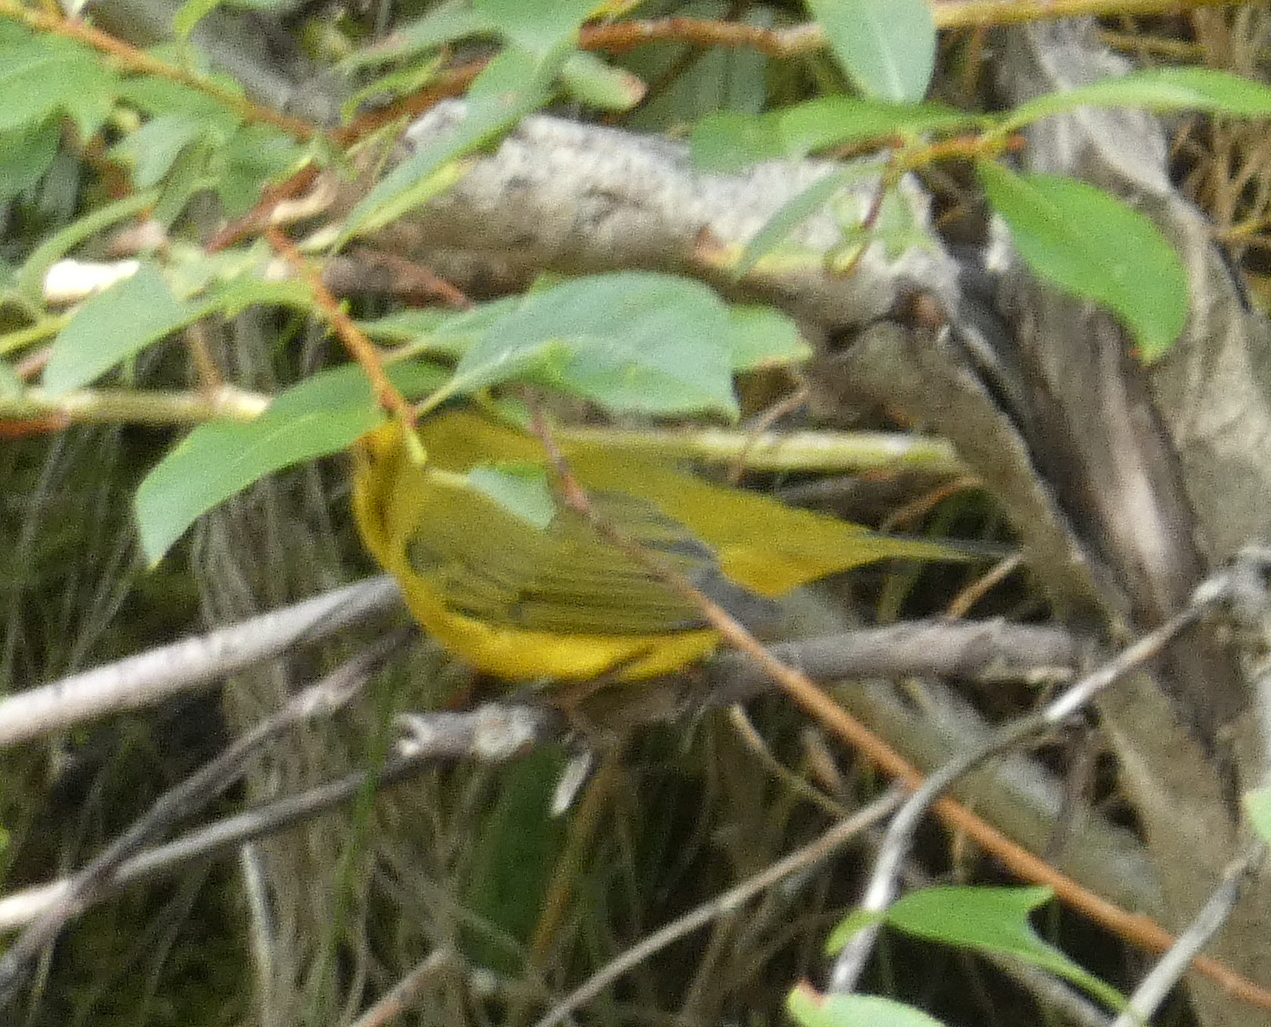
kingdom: Animalia
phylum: Chordata
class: Aves
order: Passeriformes
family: Parulidae
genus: Cardellina
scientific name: Cardellina pusilla
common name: Wilson's warbler
